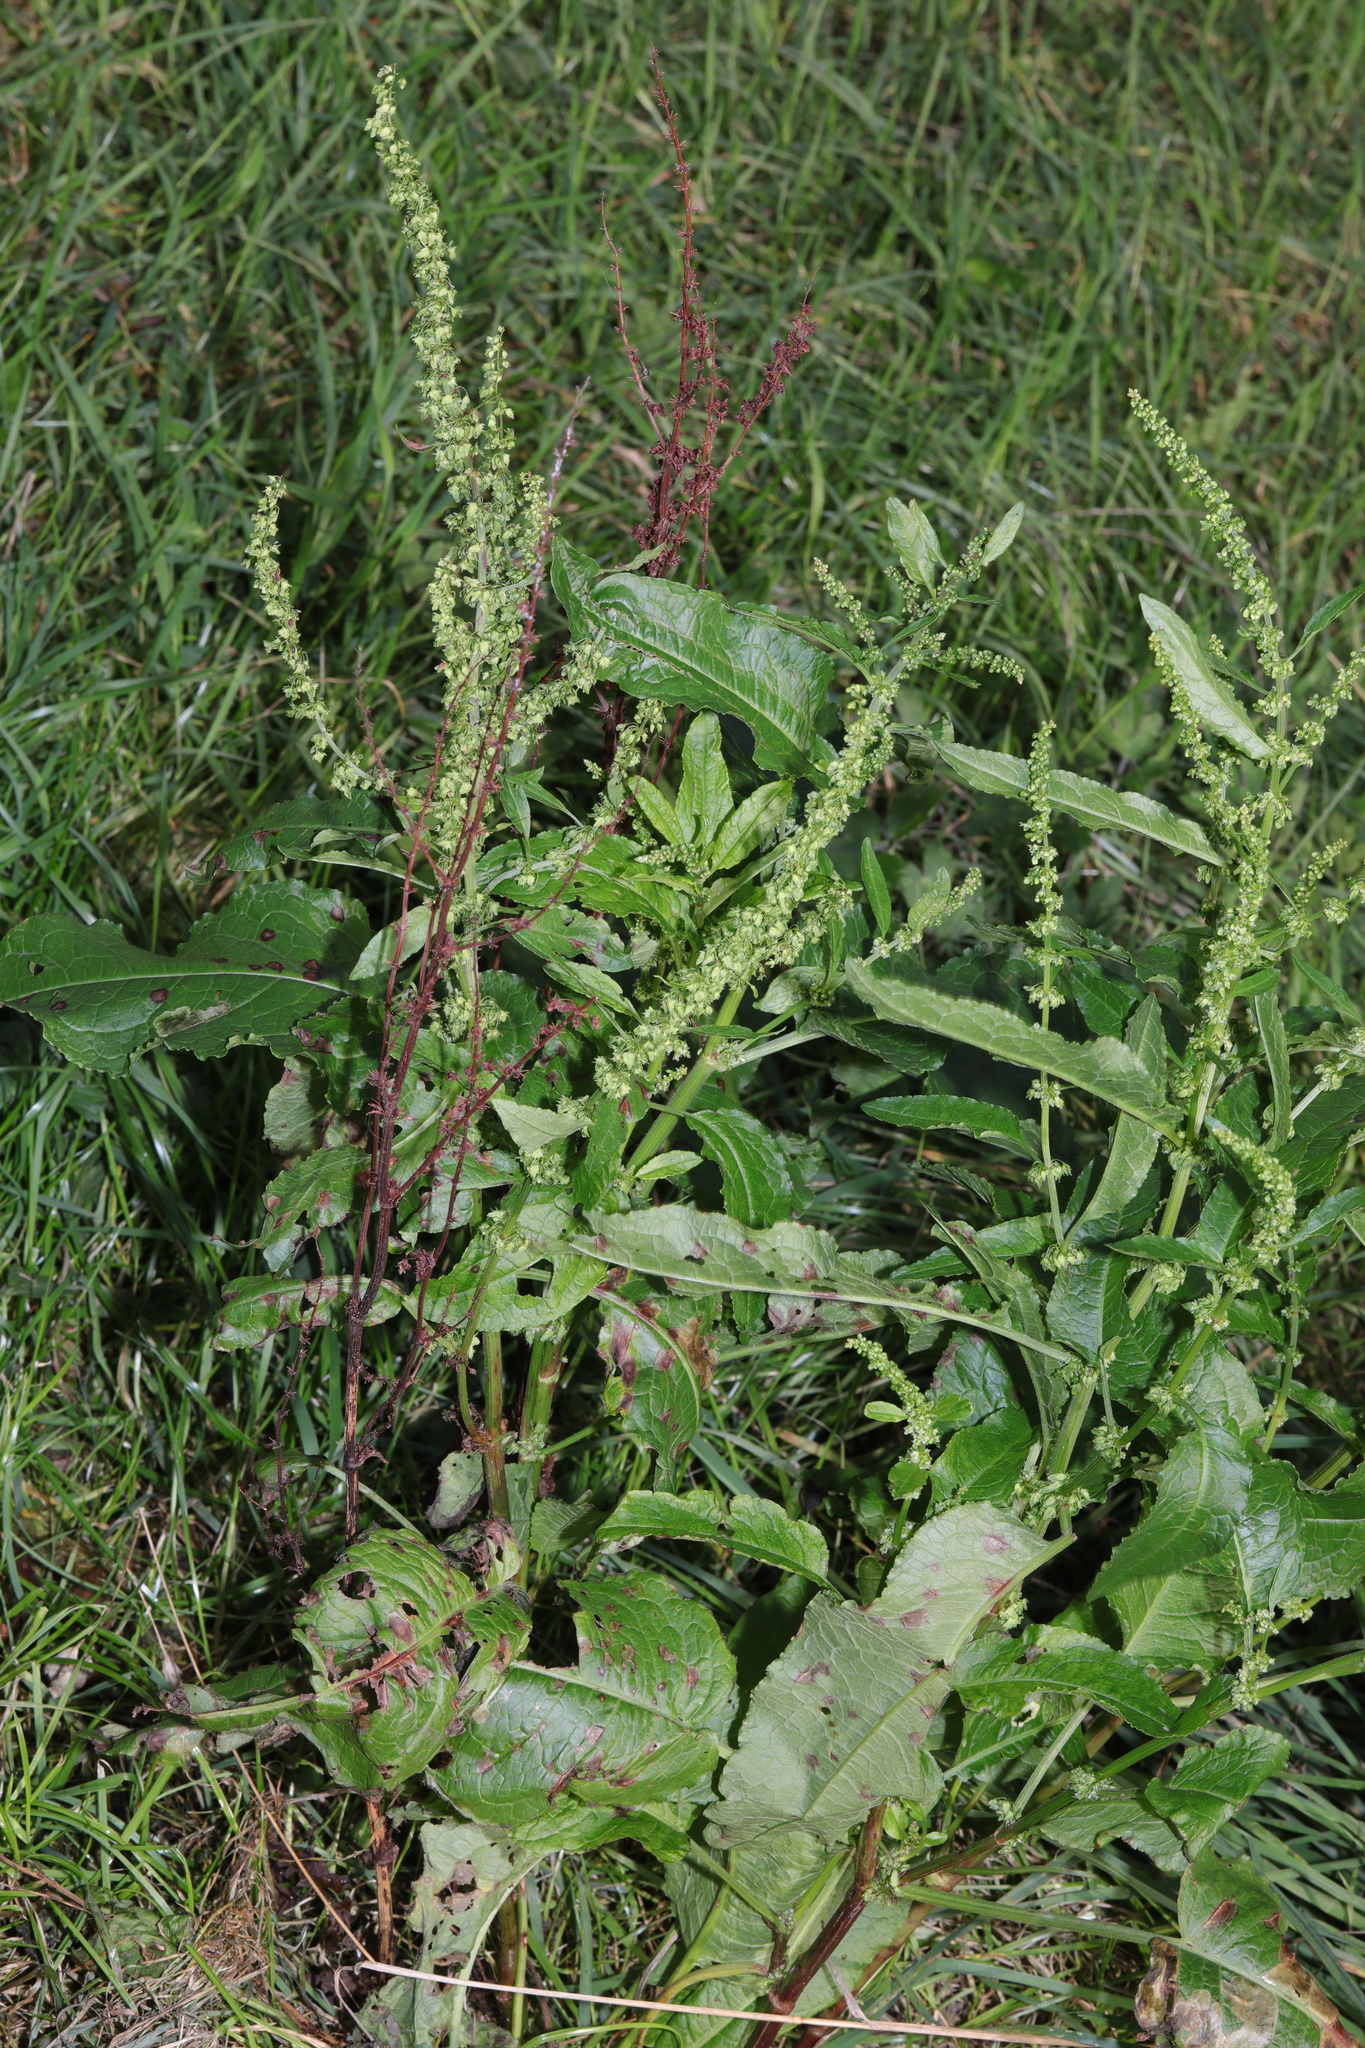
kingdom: Plantae
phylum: Tracheophyta
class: Magnoliopsida
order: Caryophyllales
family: Polygonaceae
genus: Rumex
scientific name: Rumex obtusifolius
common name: Bitter dock
